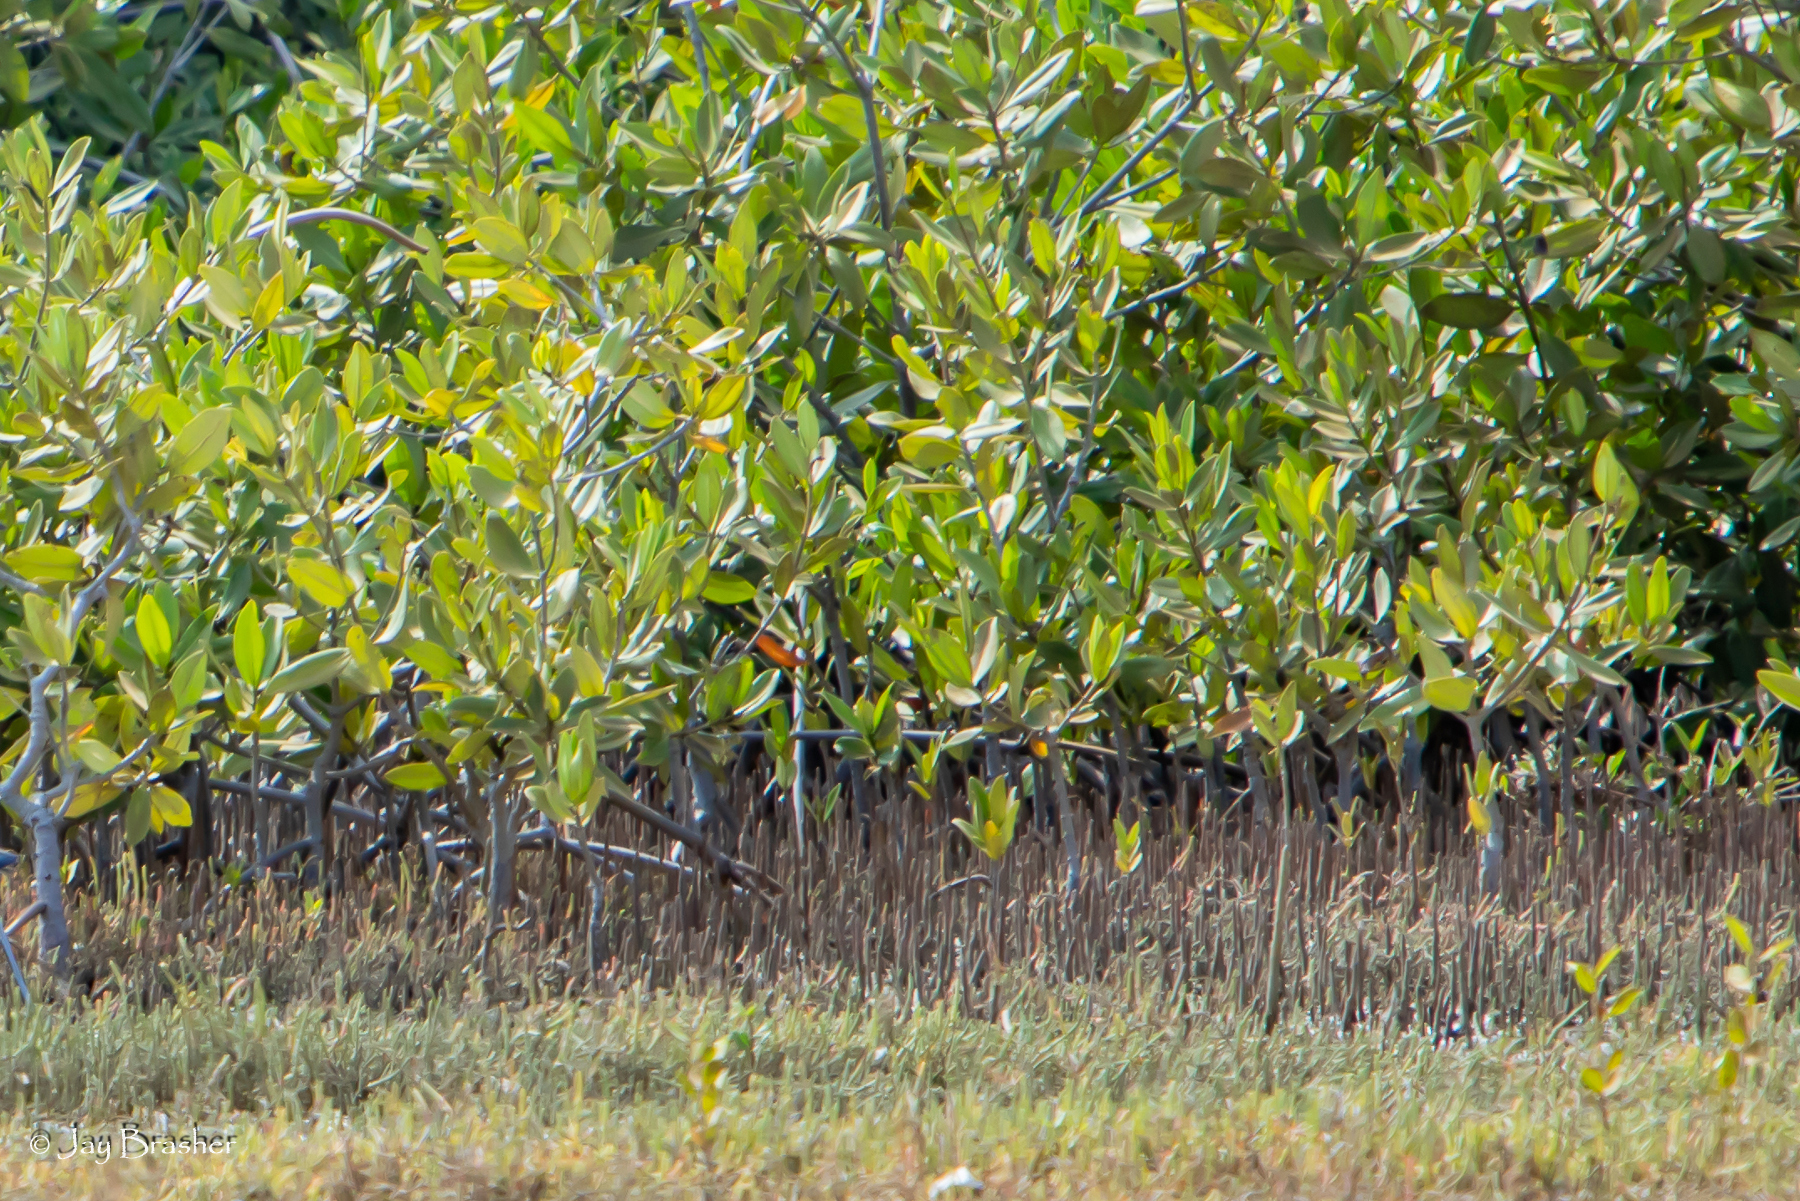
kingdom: Plantae
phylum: Tracheophyta
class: Magnoliopsida
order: Lamiales
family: Acanthaceae
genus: Avicennia
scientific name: Avicennia germinans
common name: Black mangrove
